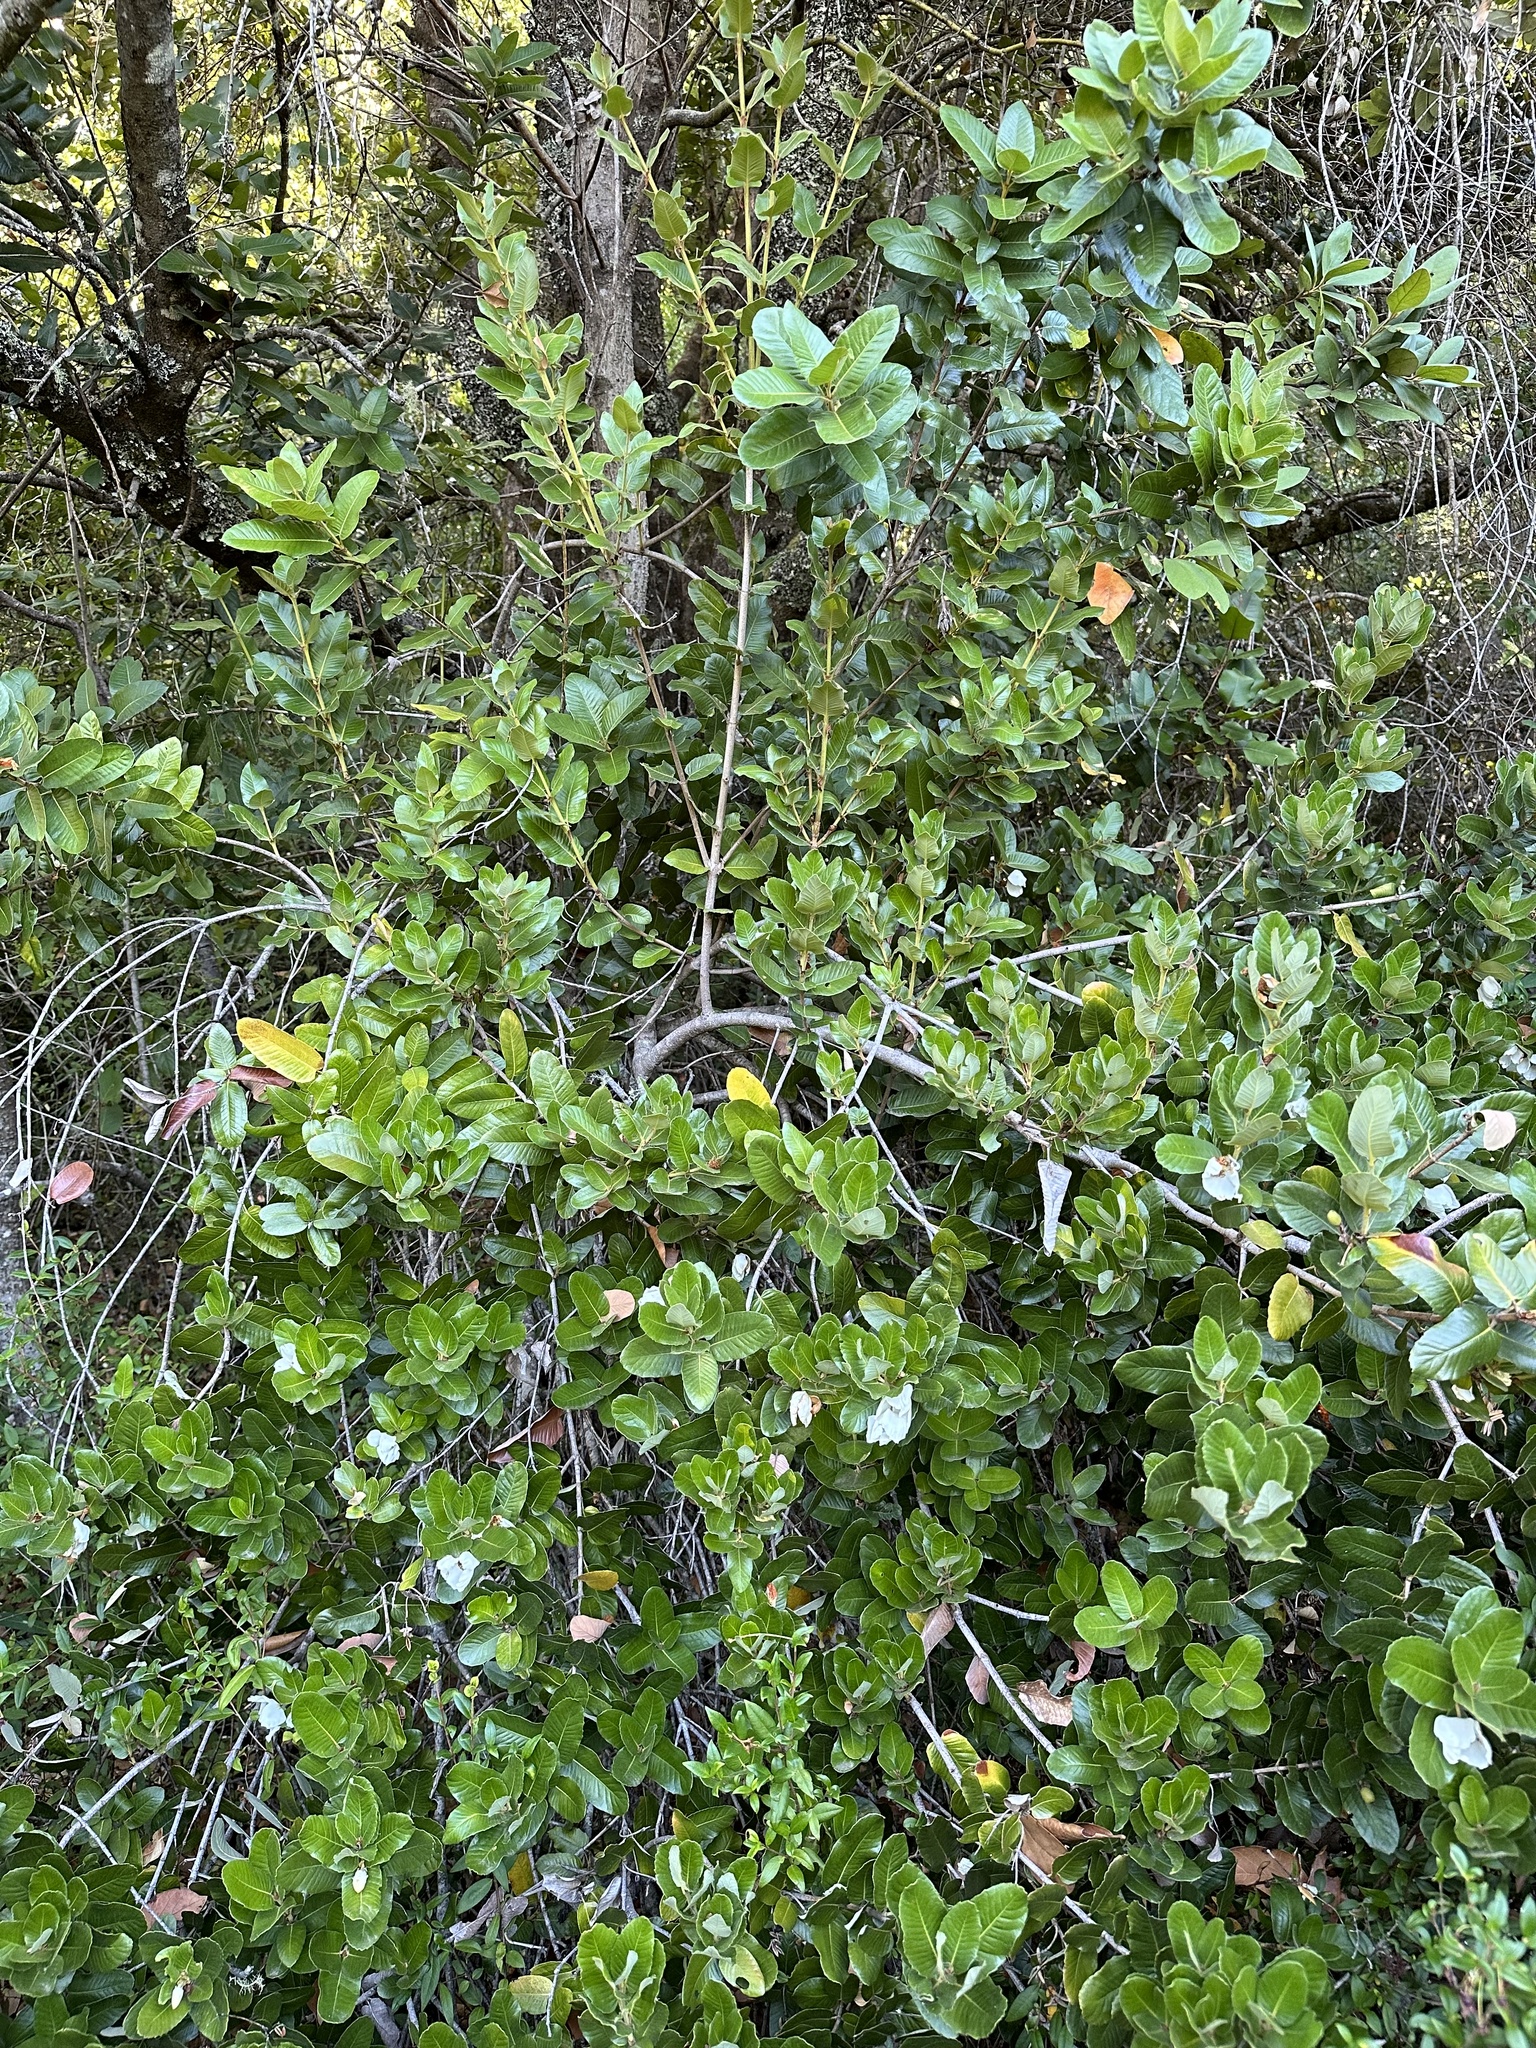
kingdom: Plantae
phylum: Tracheophyta
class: Magnoliopsida
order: Oxalidales
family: Cunoniaceae
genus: Eucryphia
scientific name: Eucryphia cordifolia
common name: Ulmo
